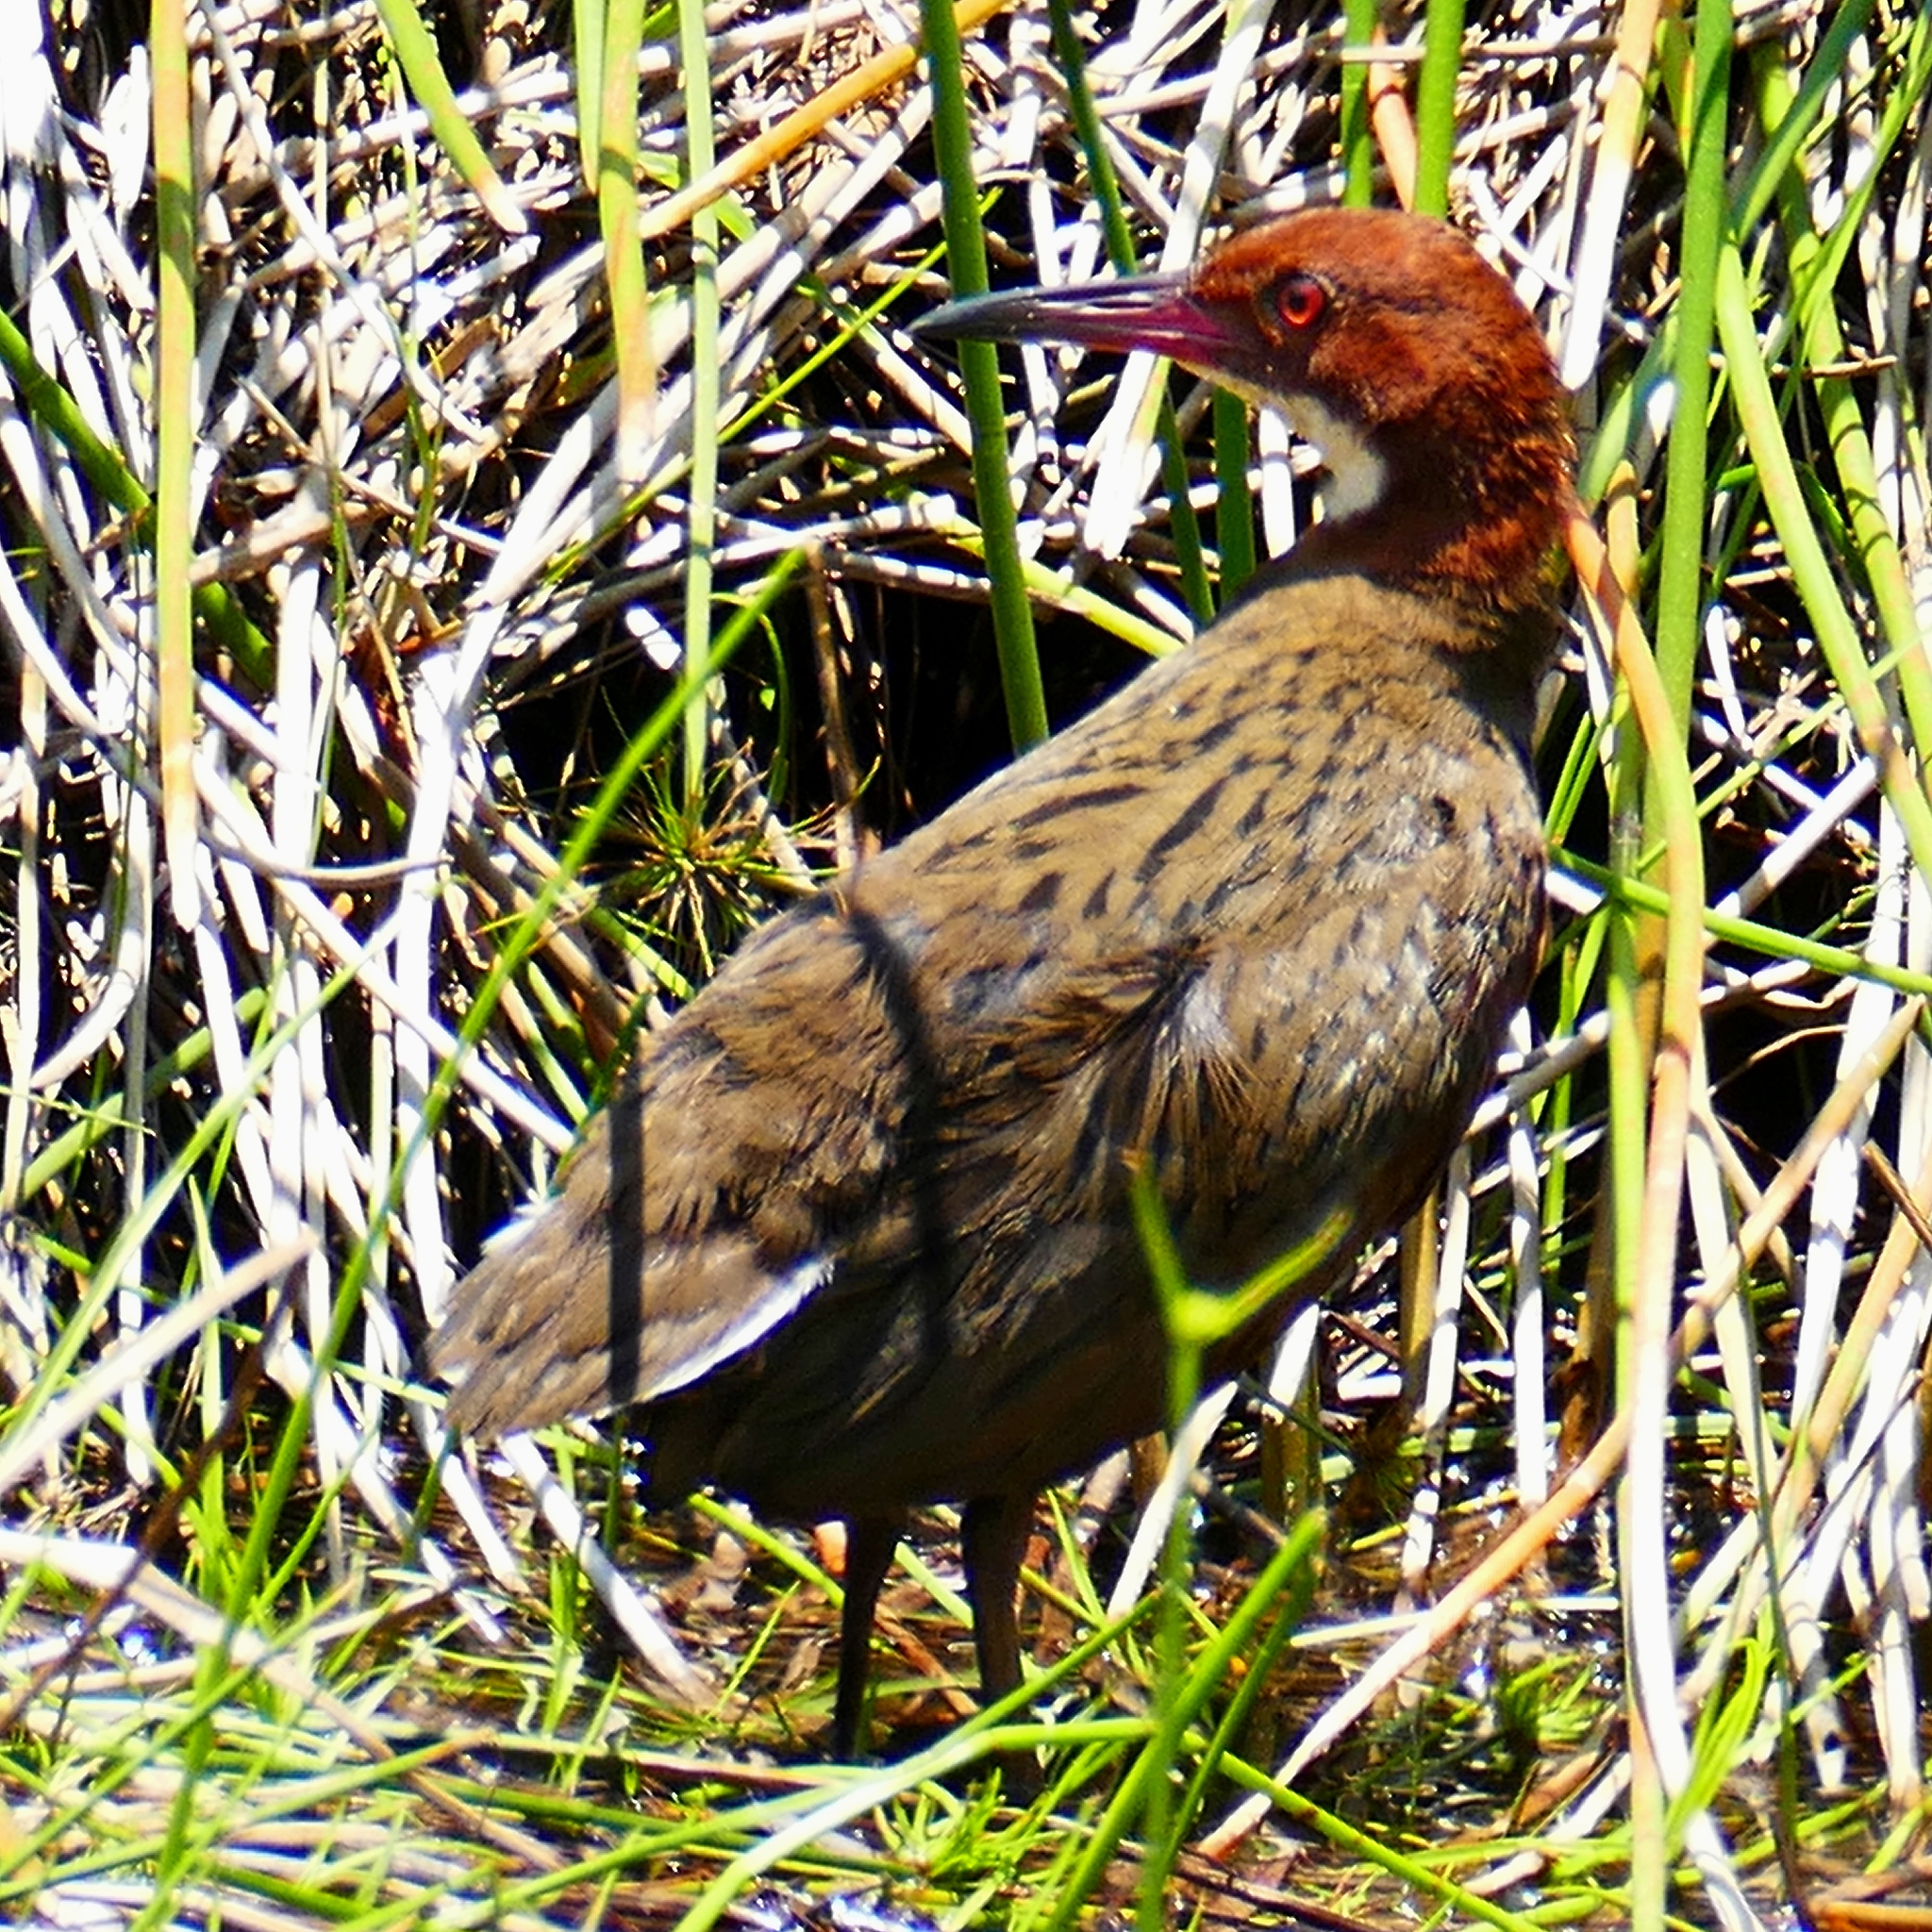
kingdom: Animalia
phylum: Chordata
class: Aves
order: Gruiformes
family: Rallidae
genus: Dryolimnas
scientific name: Dryolimnas cuvieri
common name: White-throated rail
